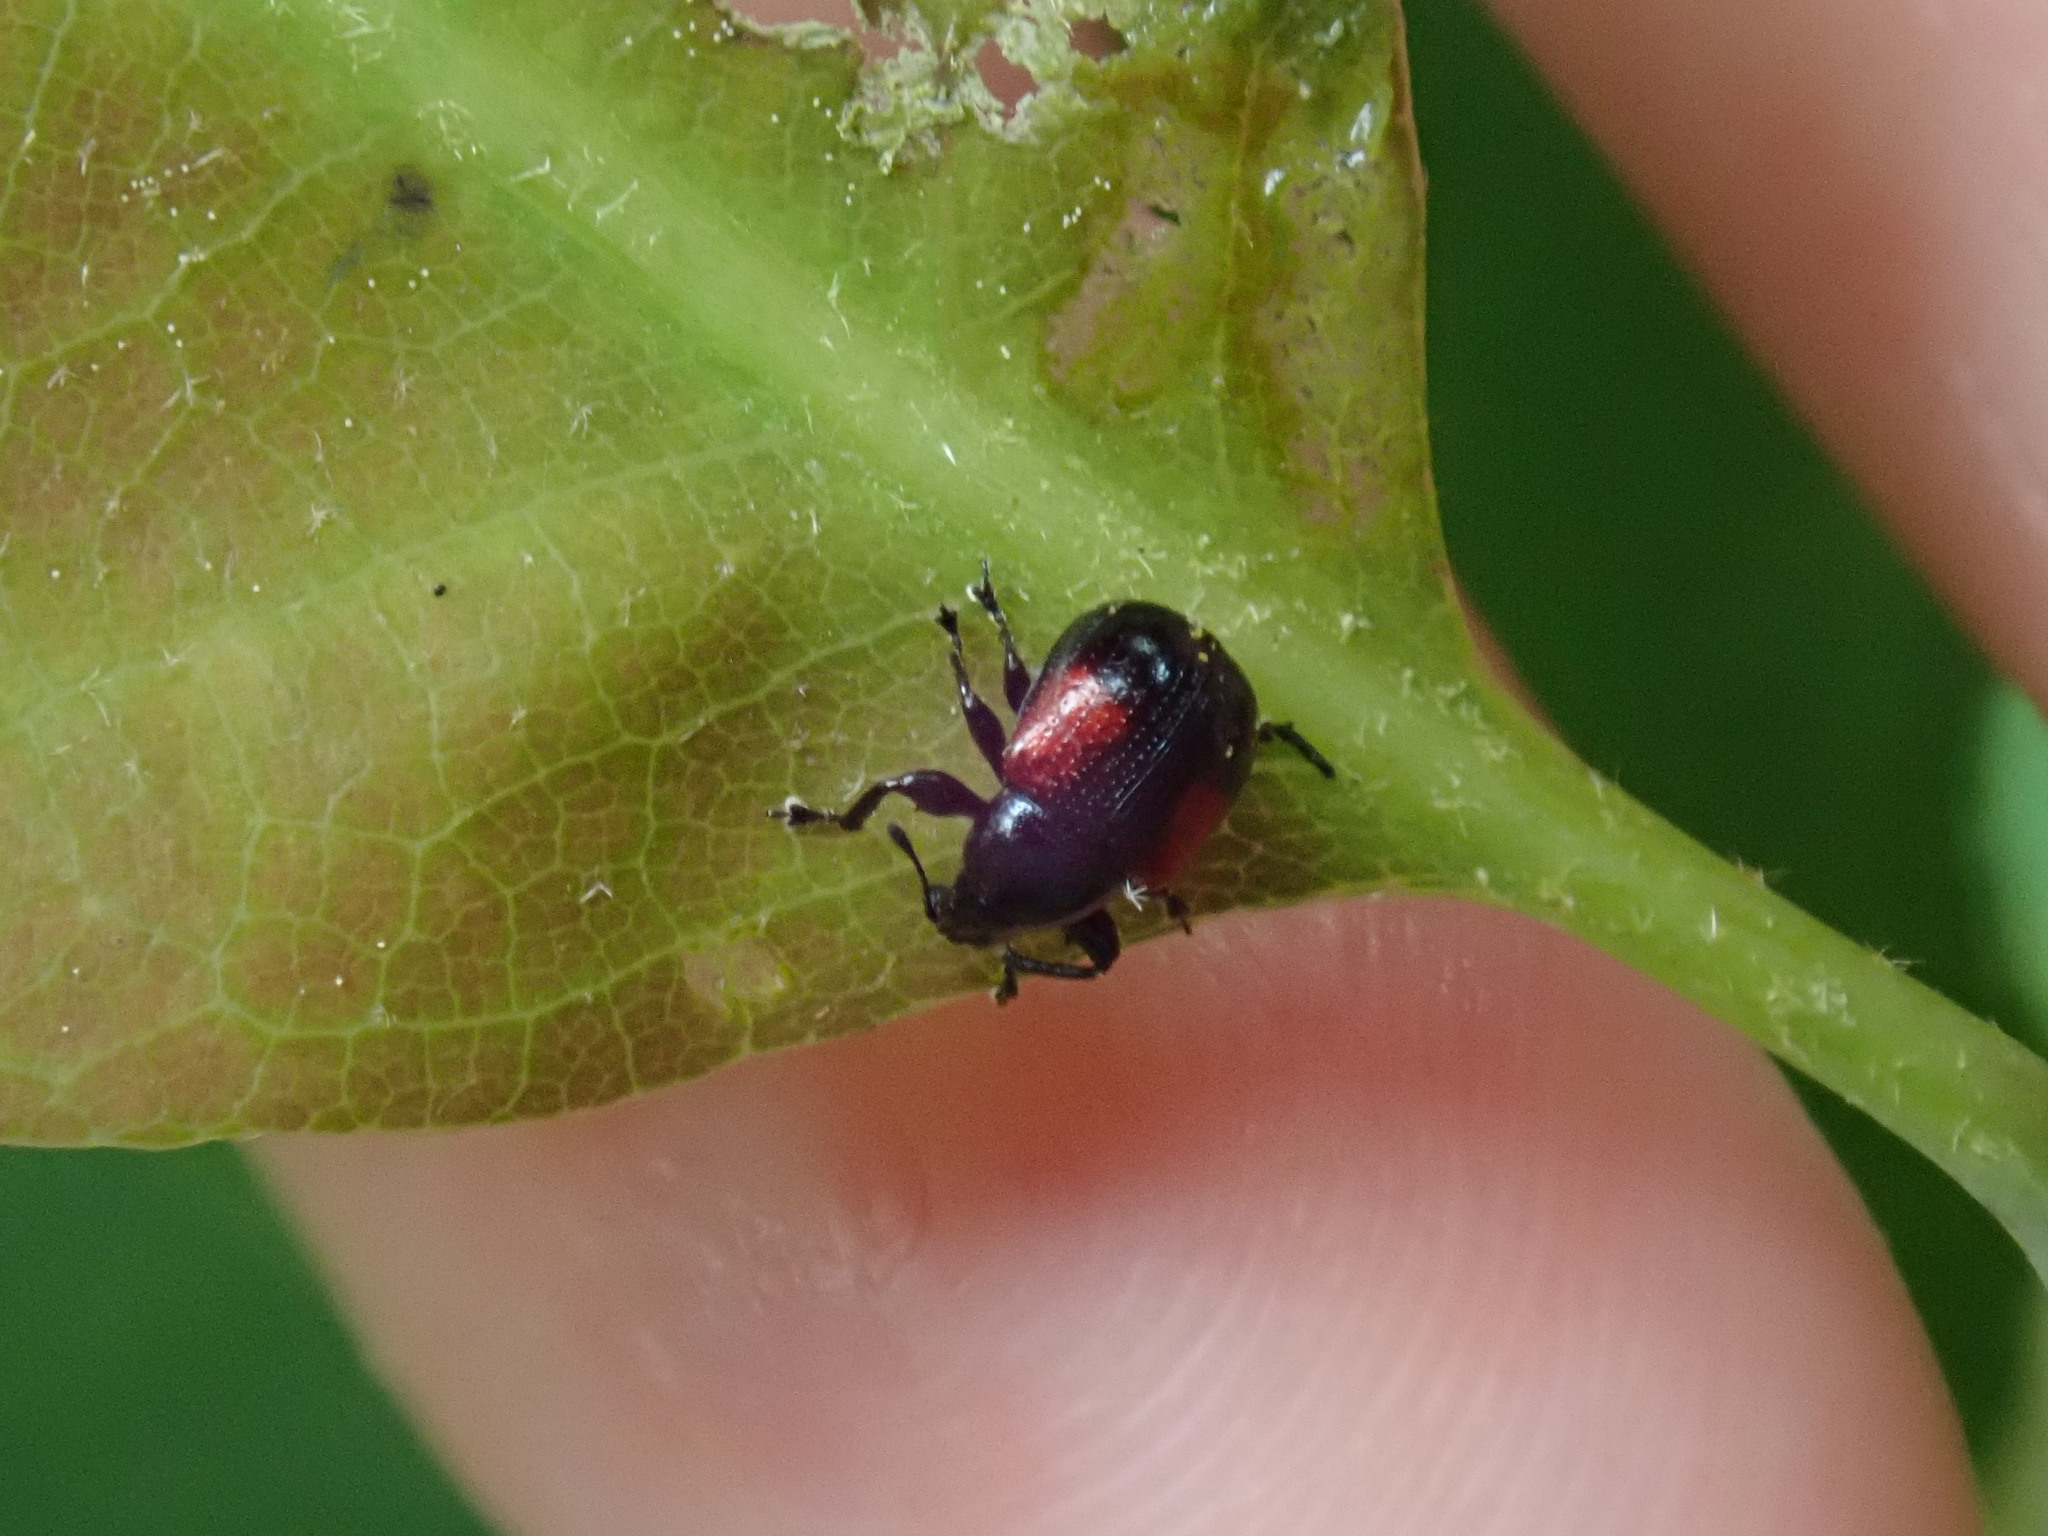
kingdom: Animalia
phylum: Arthropoda
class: Insecta
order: Coleoptera
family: Attelabidae
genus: Attelabus
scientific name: Attelabus bipustulatus
